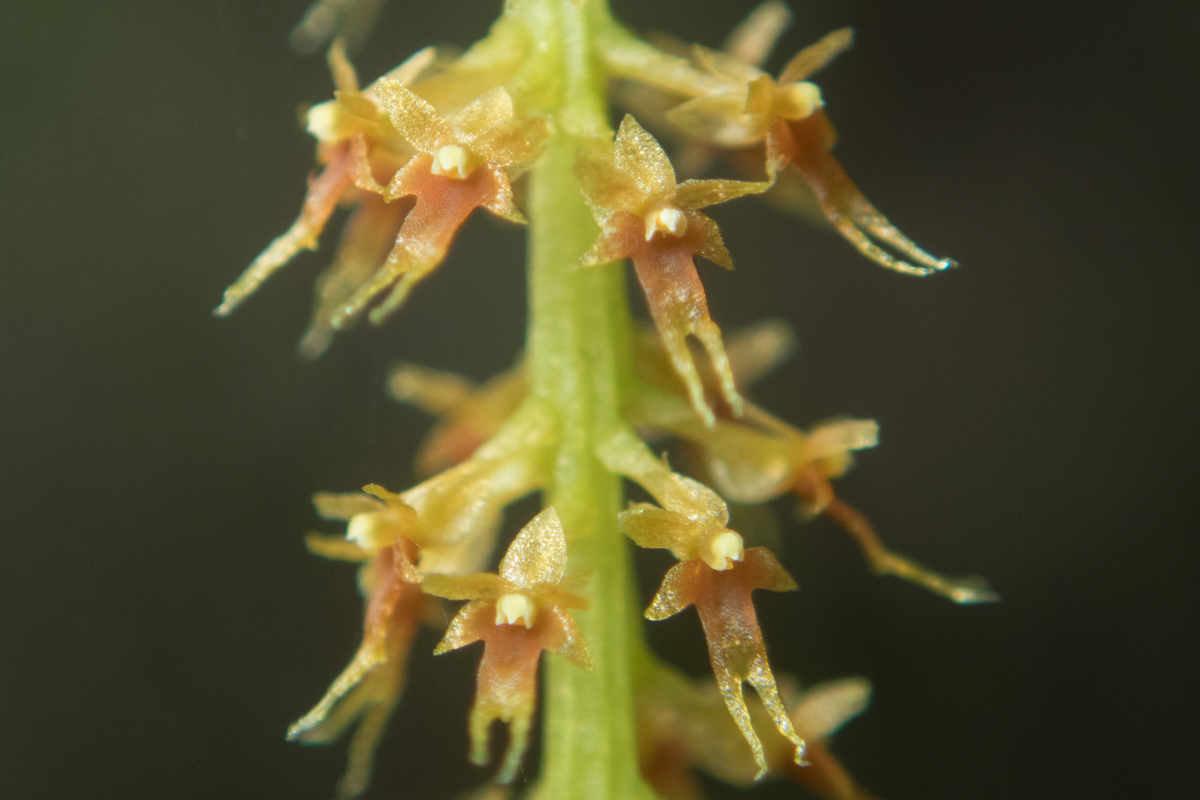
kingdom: Plantae
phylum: Tracheophyta
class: Liliopsida
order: Asparagales
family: Orchidaceae
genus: Oberonia
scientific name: Oberonia falcata
